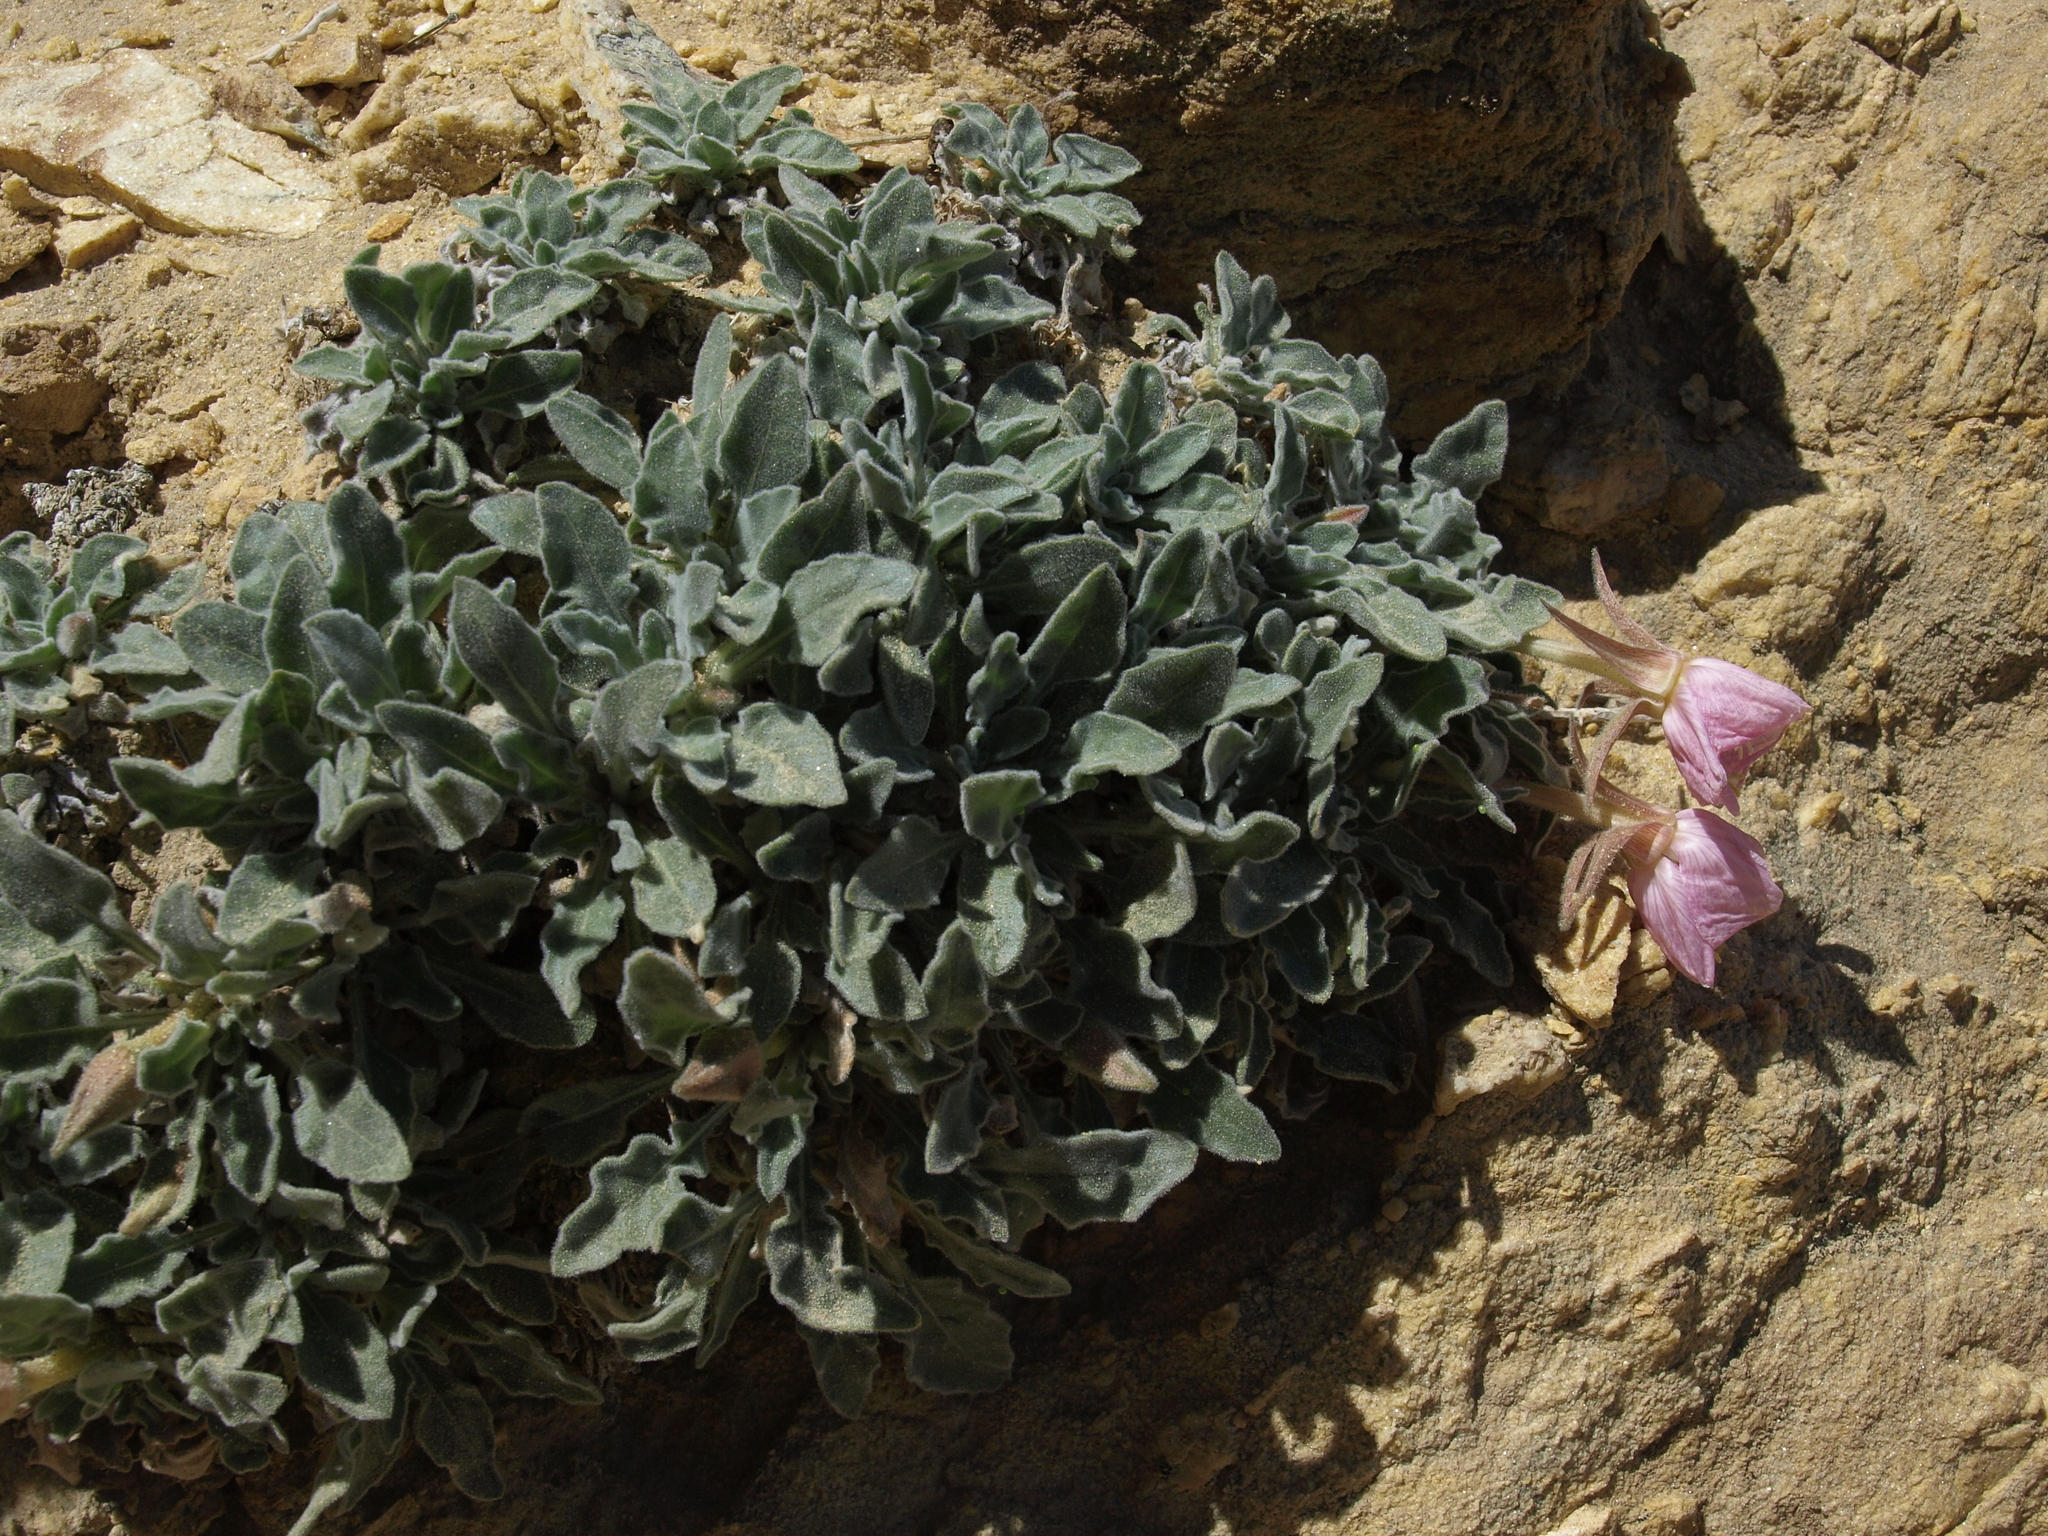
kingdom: Plantae
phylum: Tracheophyta
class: Magnoliopsida
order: Myrtales
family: Onagraceae
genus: Oenothera
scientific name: Oenothera cespitosa
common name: Tufted evening-primrose
